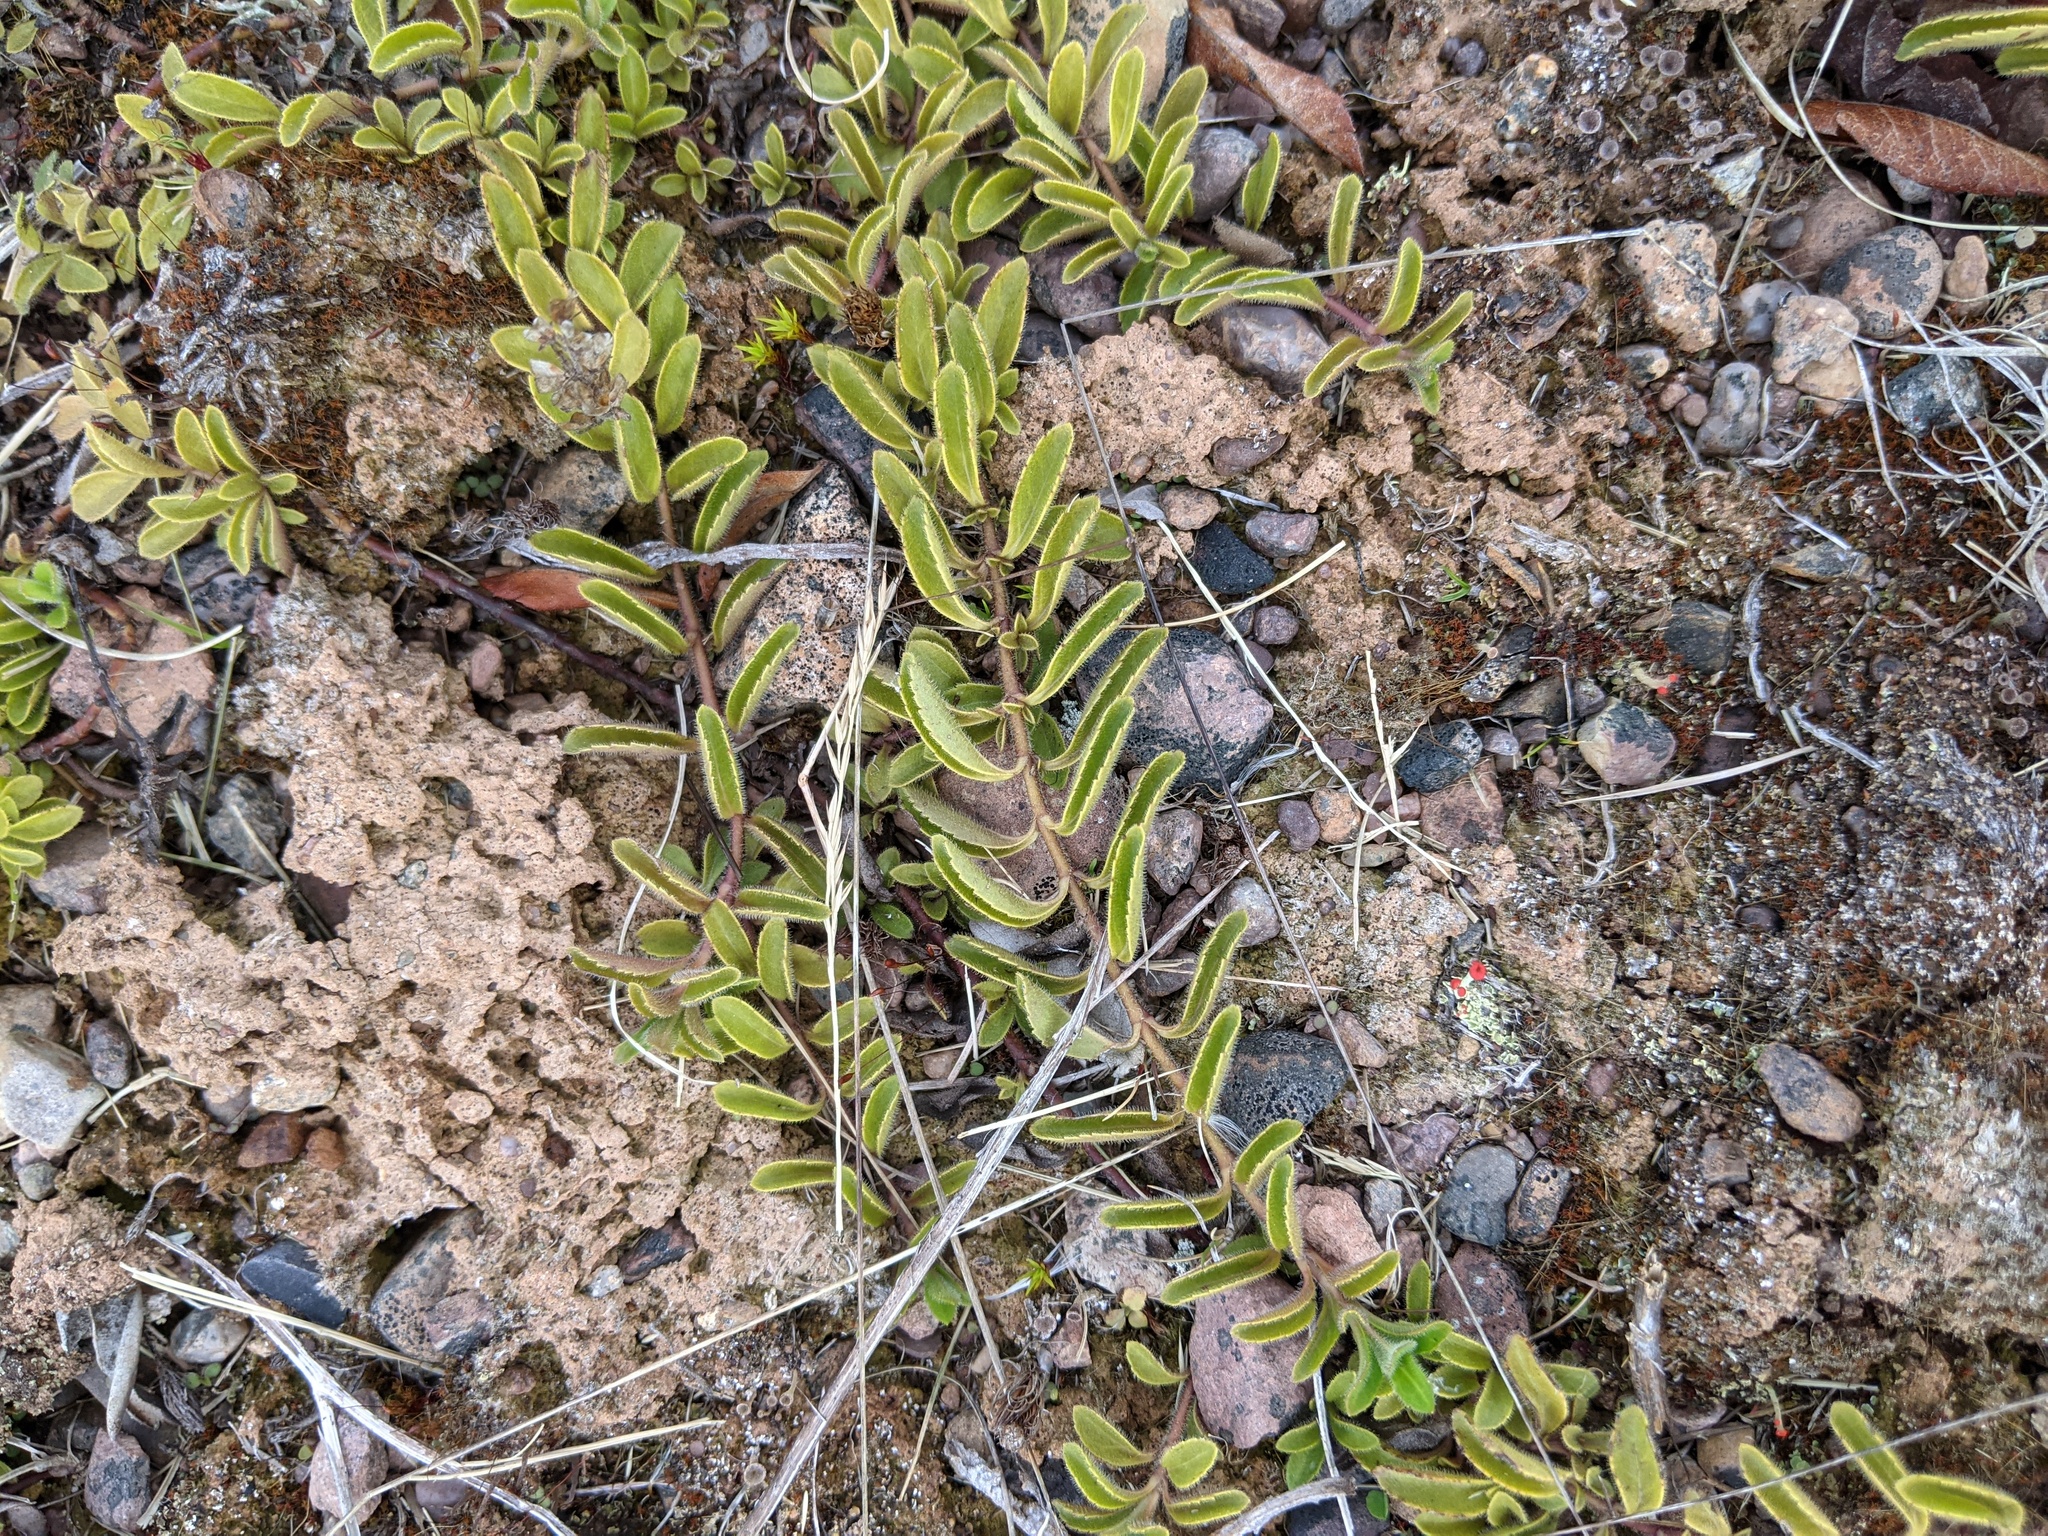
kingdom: Plantae
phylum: Tracheophyta
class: Magnoliopsida
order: Lamiales
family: Plantaginaceae
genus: Veronica
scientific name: Veronica officinalis
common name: Common speedwell
